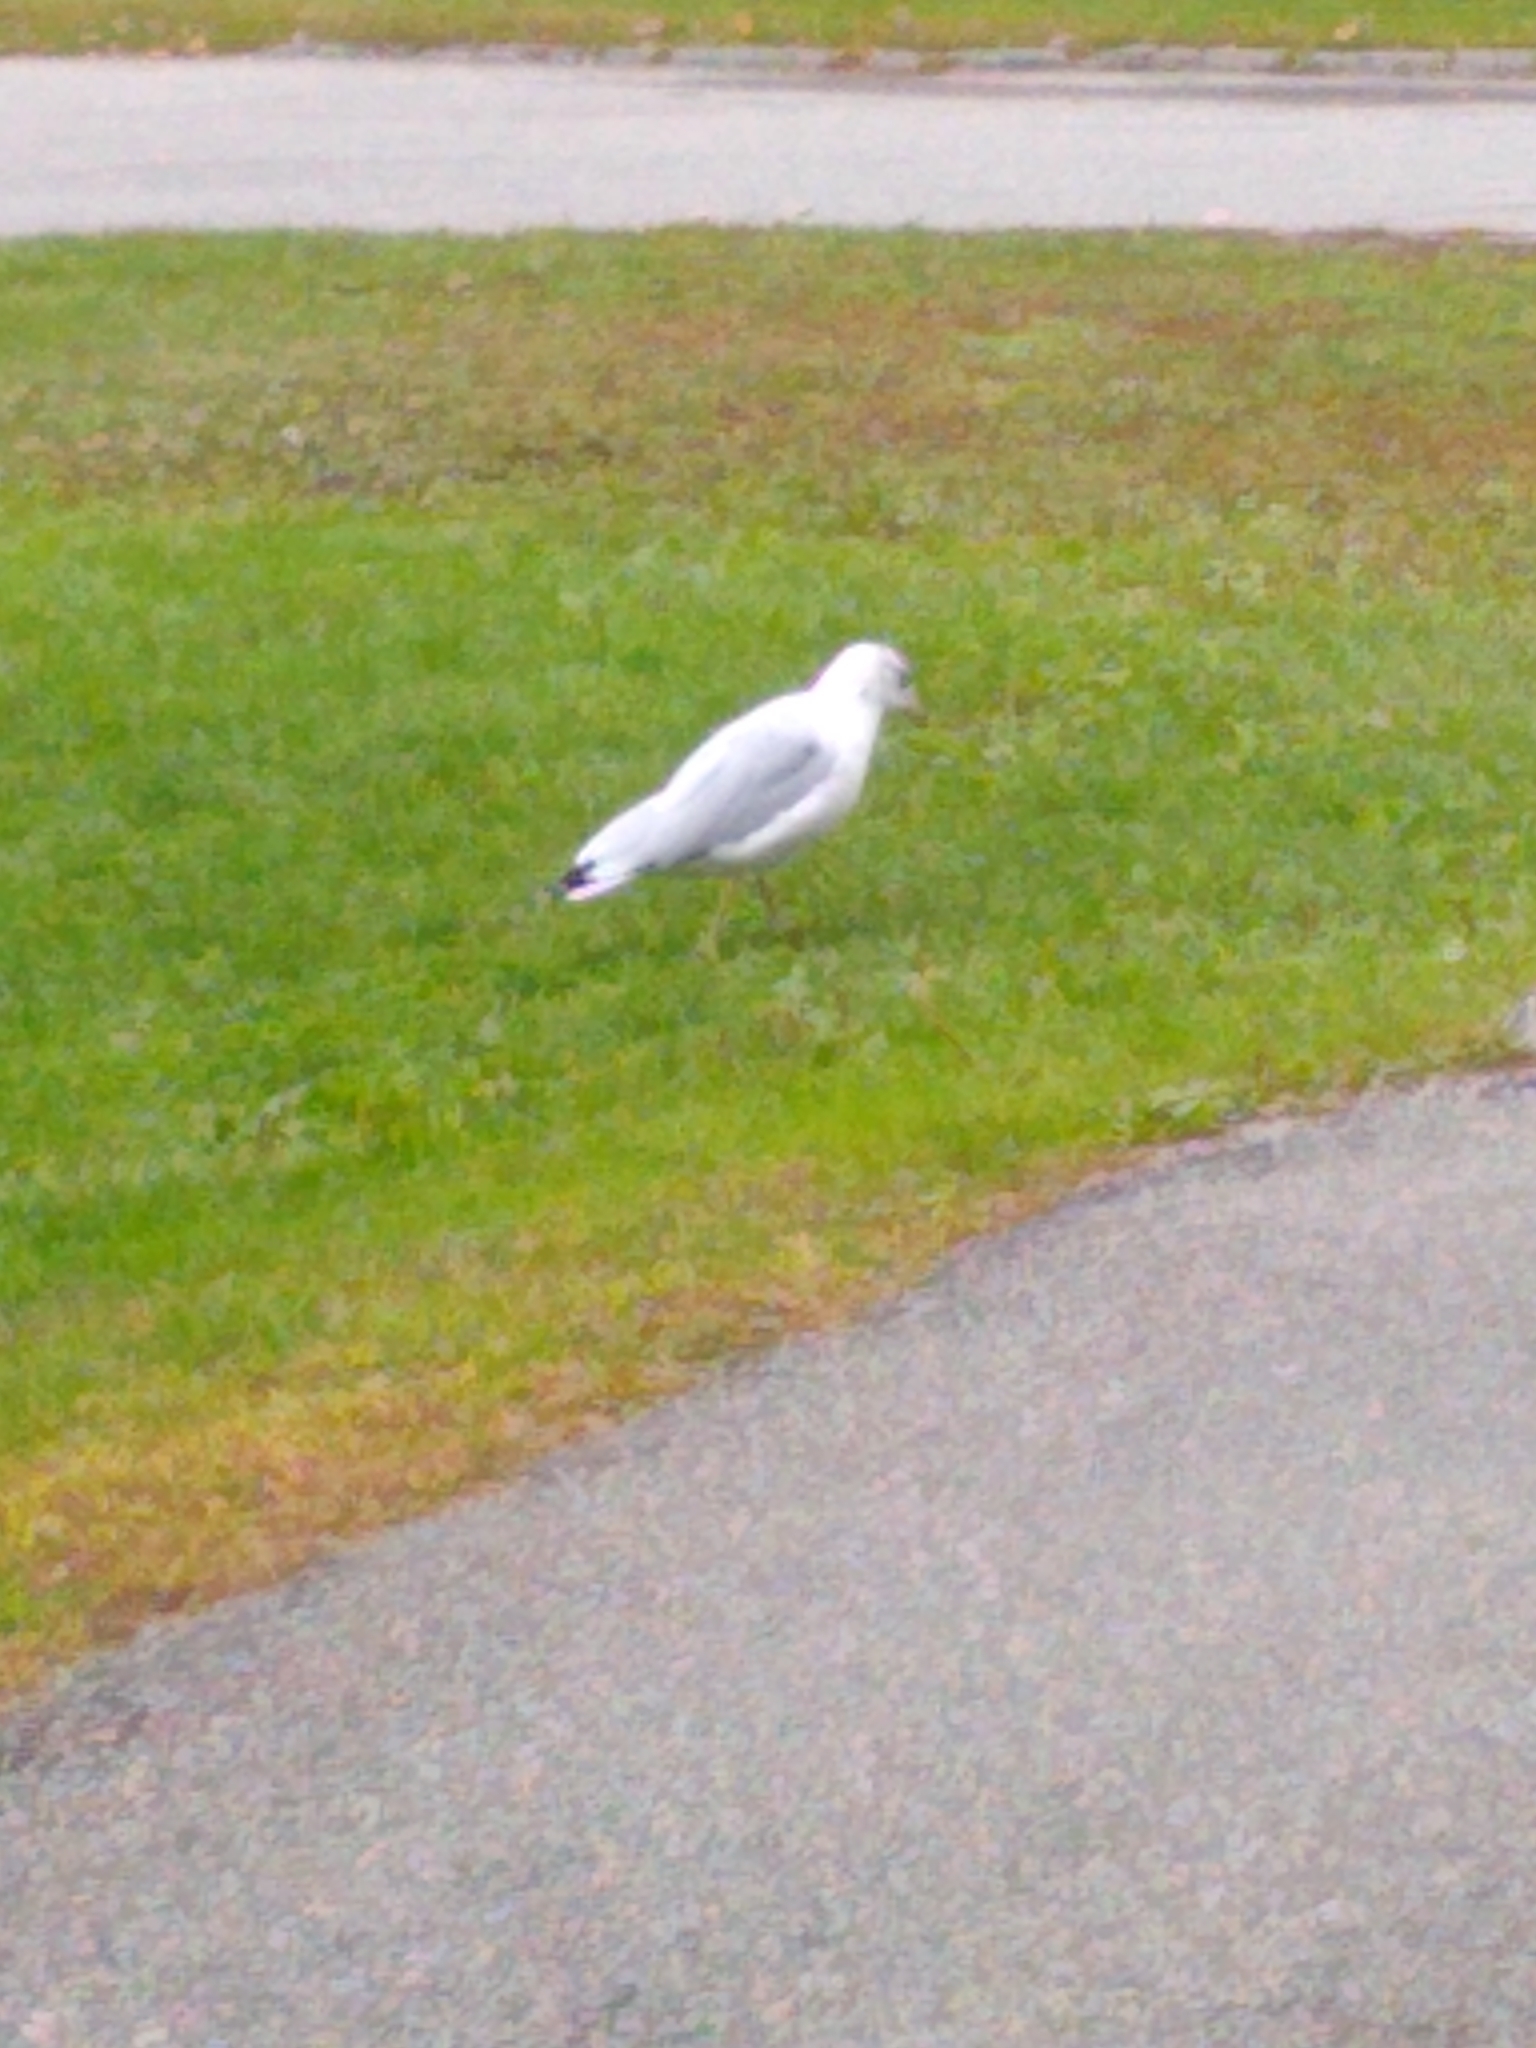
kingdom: Animalia
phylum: Chordata
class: Aves
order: Charadriiformes
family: Laridae
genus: Larus
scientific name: Larus delawarensis
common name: Ring-billed gull
